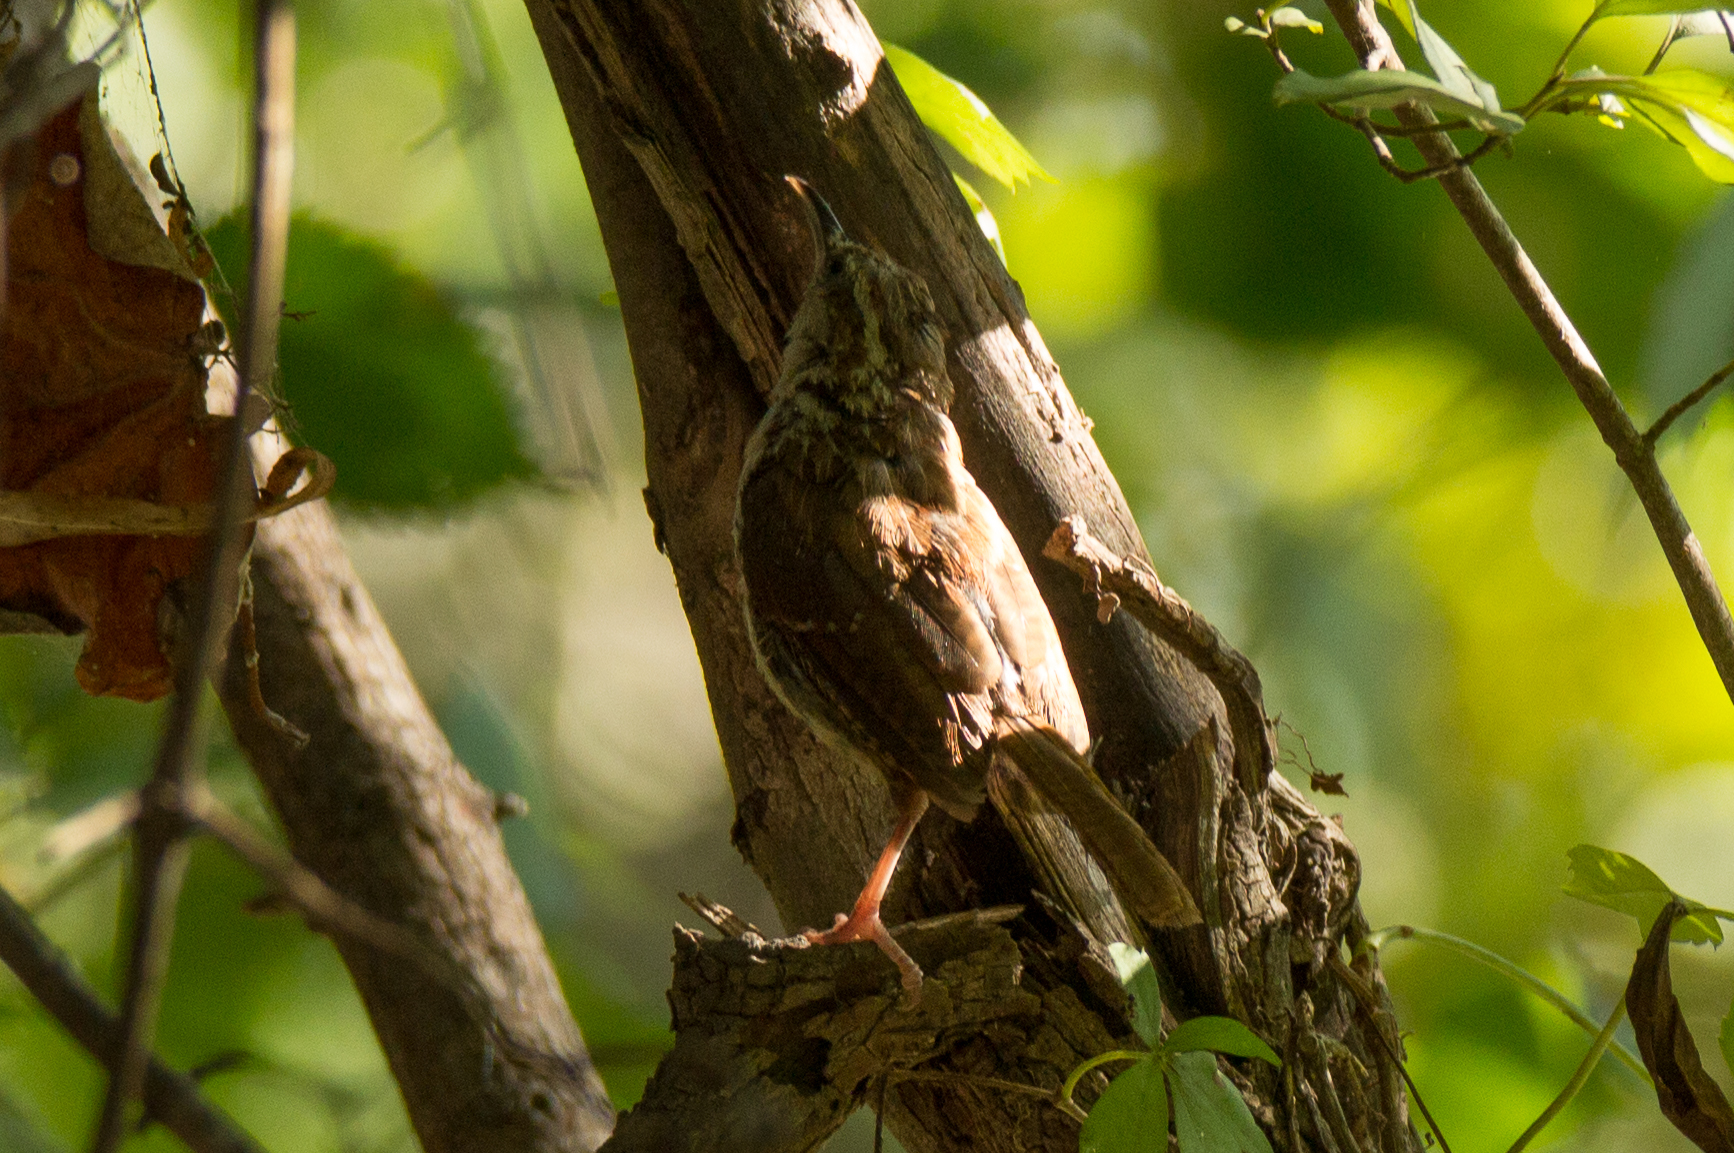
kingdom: Animalia
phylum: Chordata
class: Aves
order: Passeriformes
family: Troglodytidae
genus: Thryothorus
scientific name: Thryothorus ludovicianus
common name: Carolina wren
